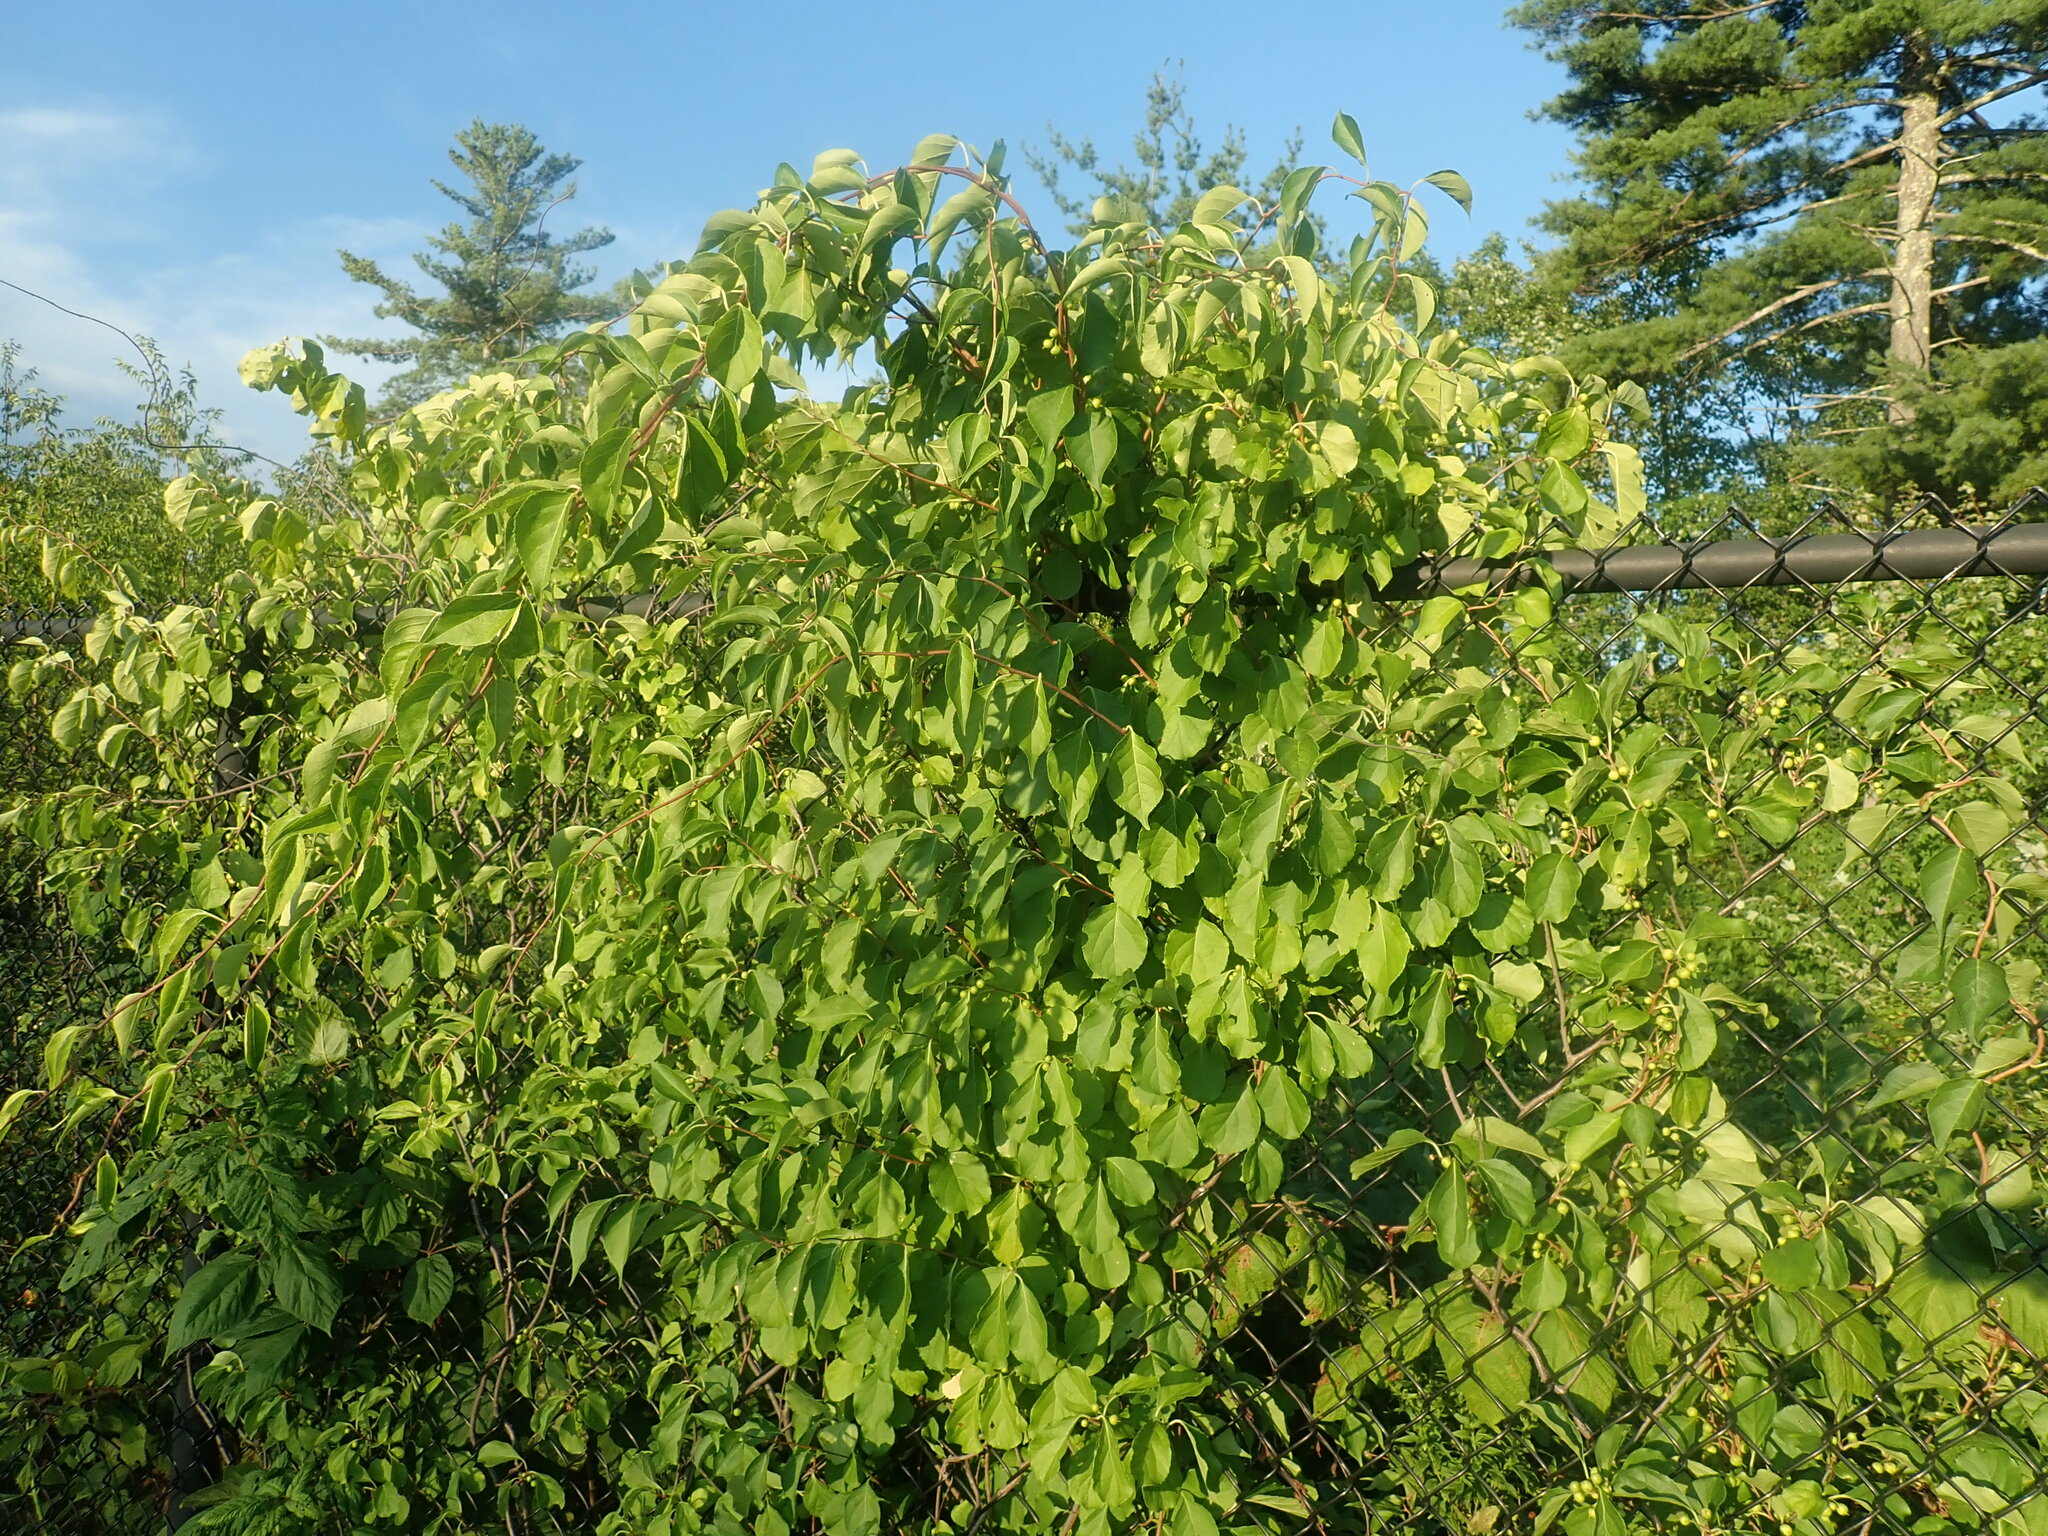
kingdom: Plantae
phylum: Tracheophyta
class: Magnoliopsida
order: Celastrales
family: Celastraceae
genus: Celastrus
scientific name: Celastrus orbiculatus
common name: Oriental bittersweet
